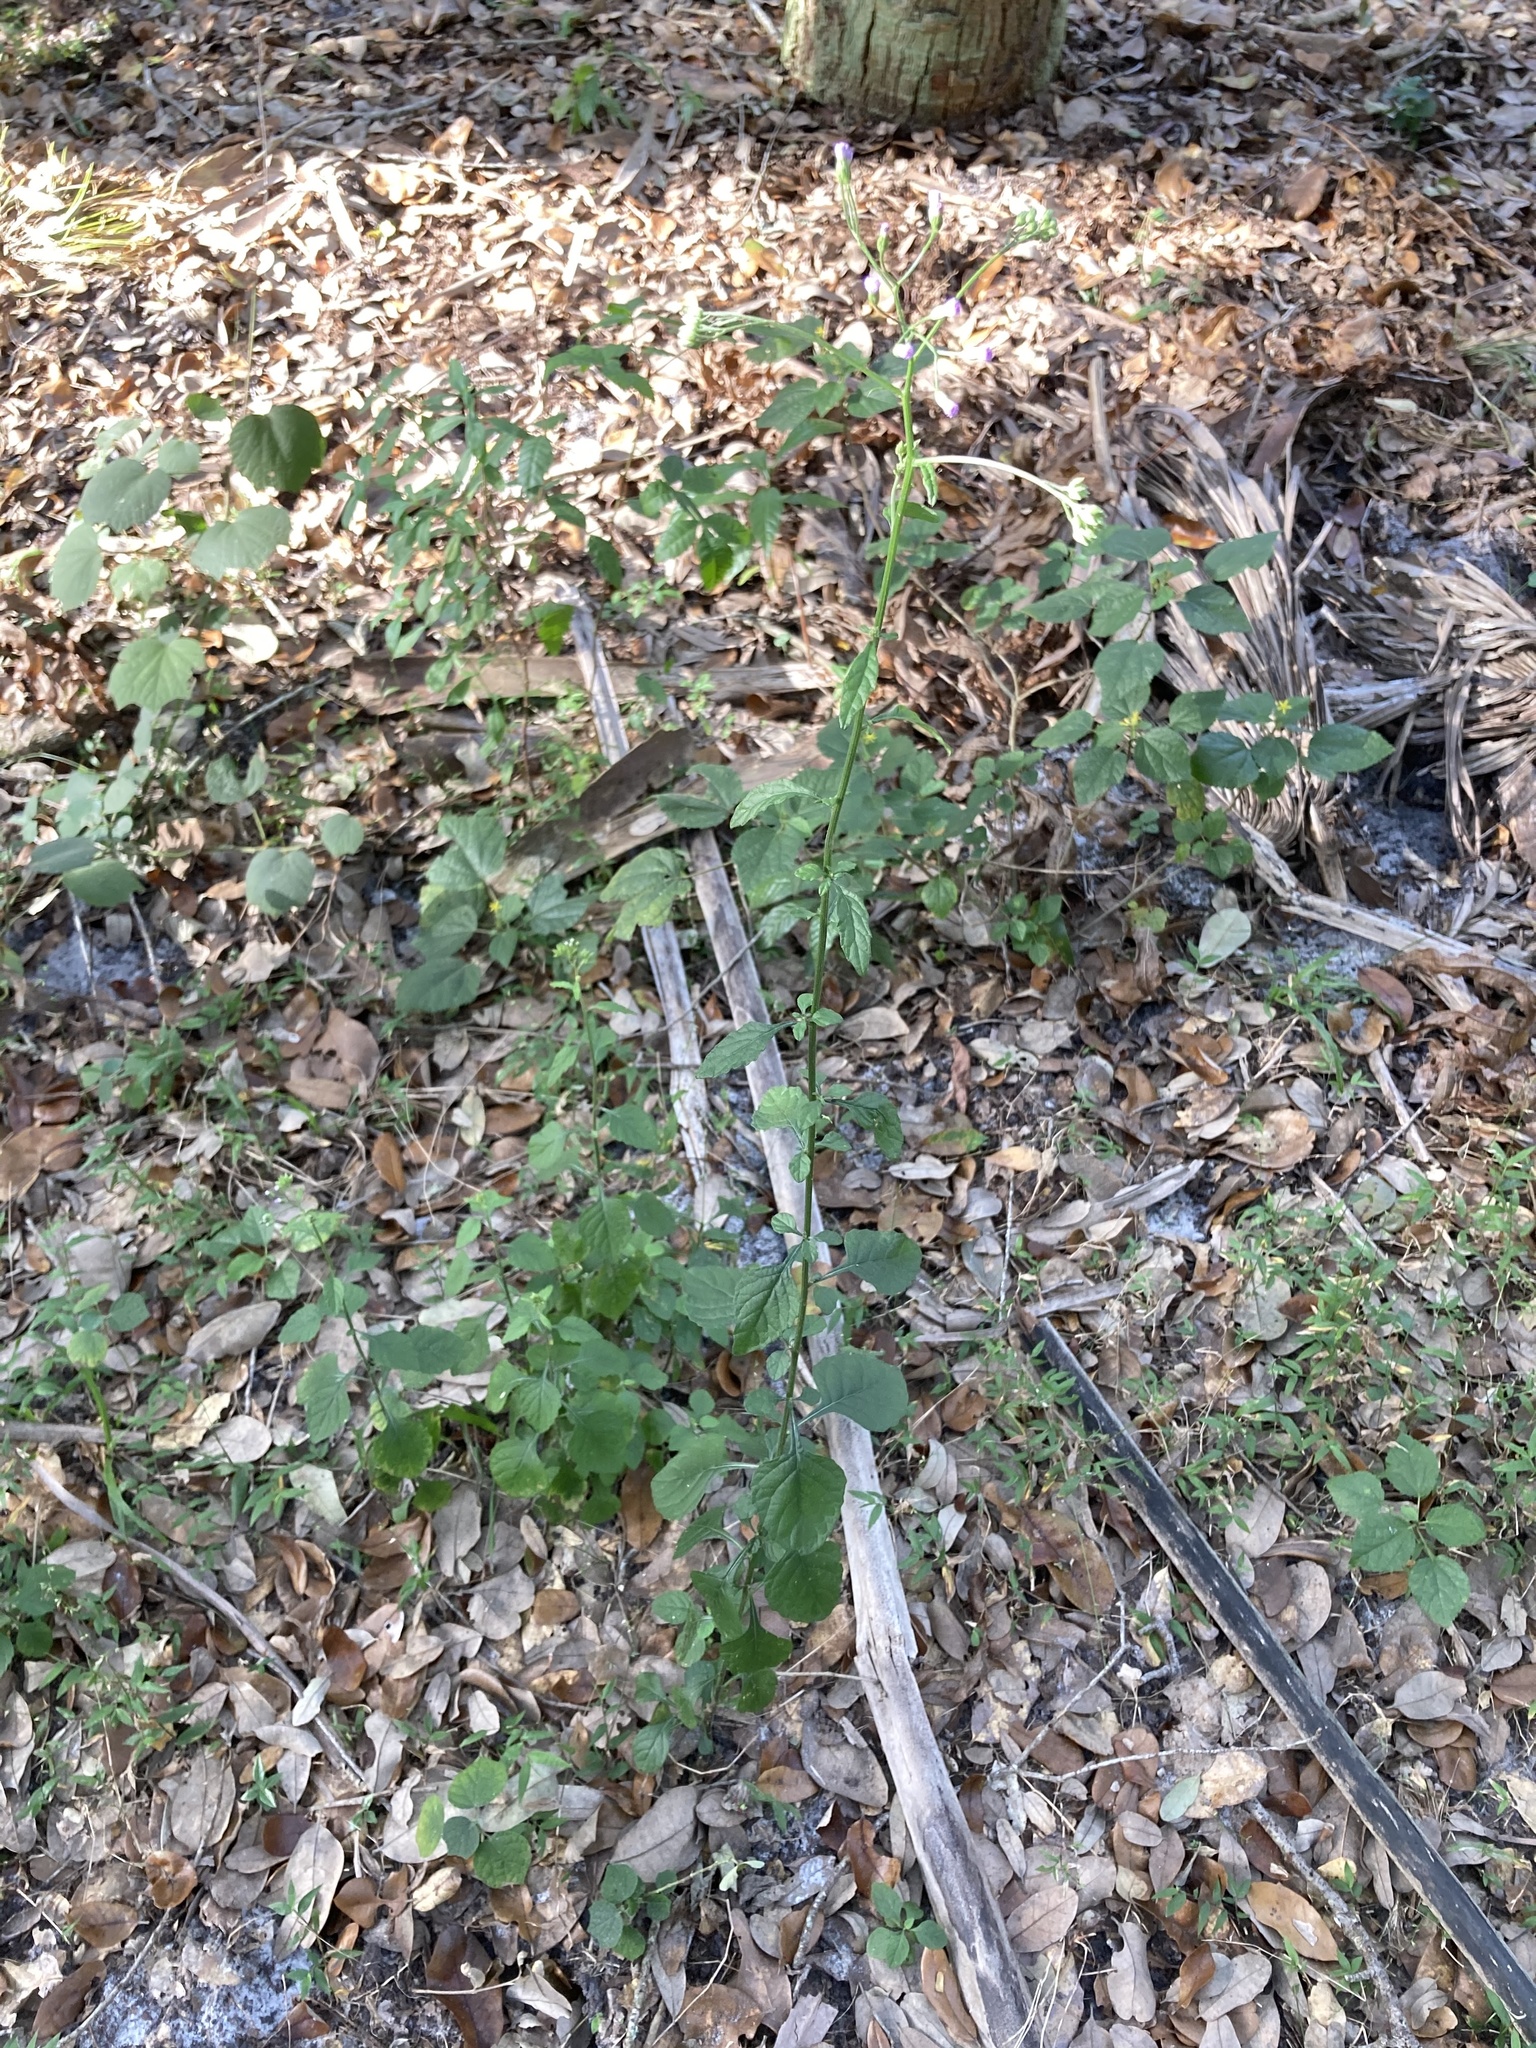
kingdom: Plantae
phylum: Tracheophyta
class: Magnoliopsida
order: Asterales
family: Asteraceae
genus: Cyanthillium
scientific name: Cyanthillium cinereum
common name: Little ironweed
